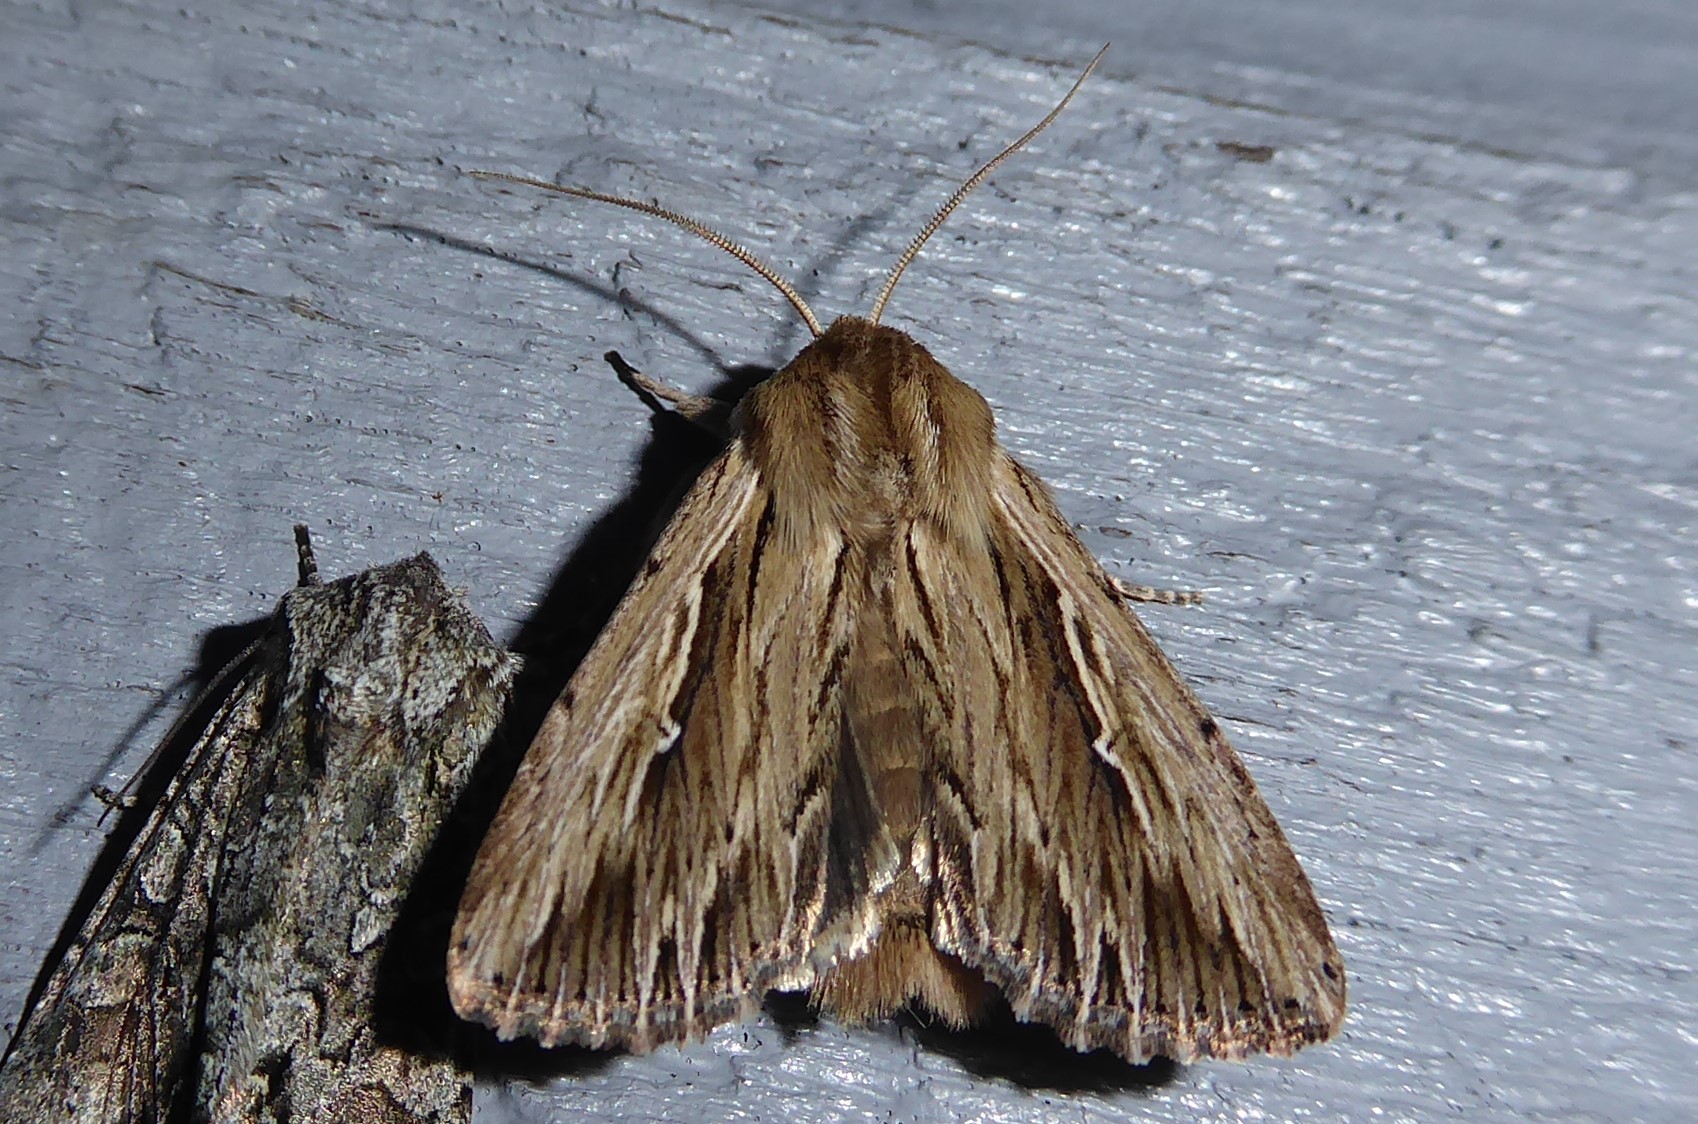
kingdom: Animalia
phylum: Arthropoda
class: Insecta
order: Lepidoptera
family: Noctuidae
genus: Persectania
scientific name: Persectania aversa
